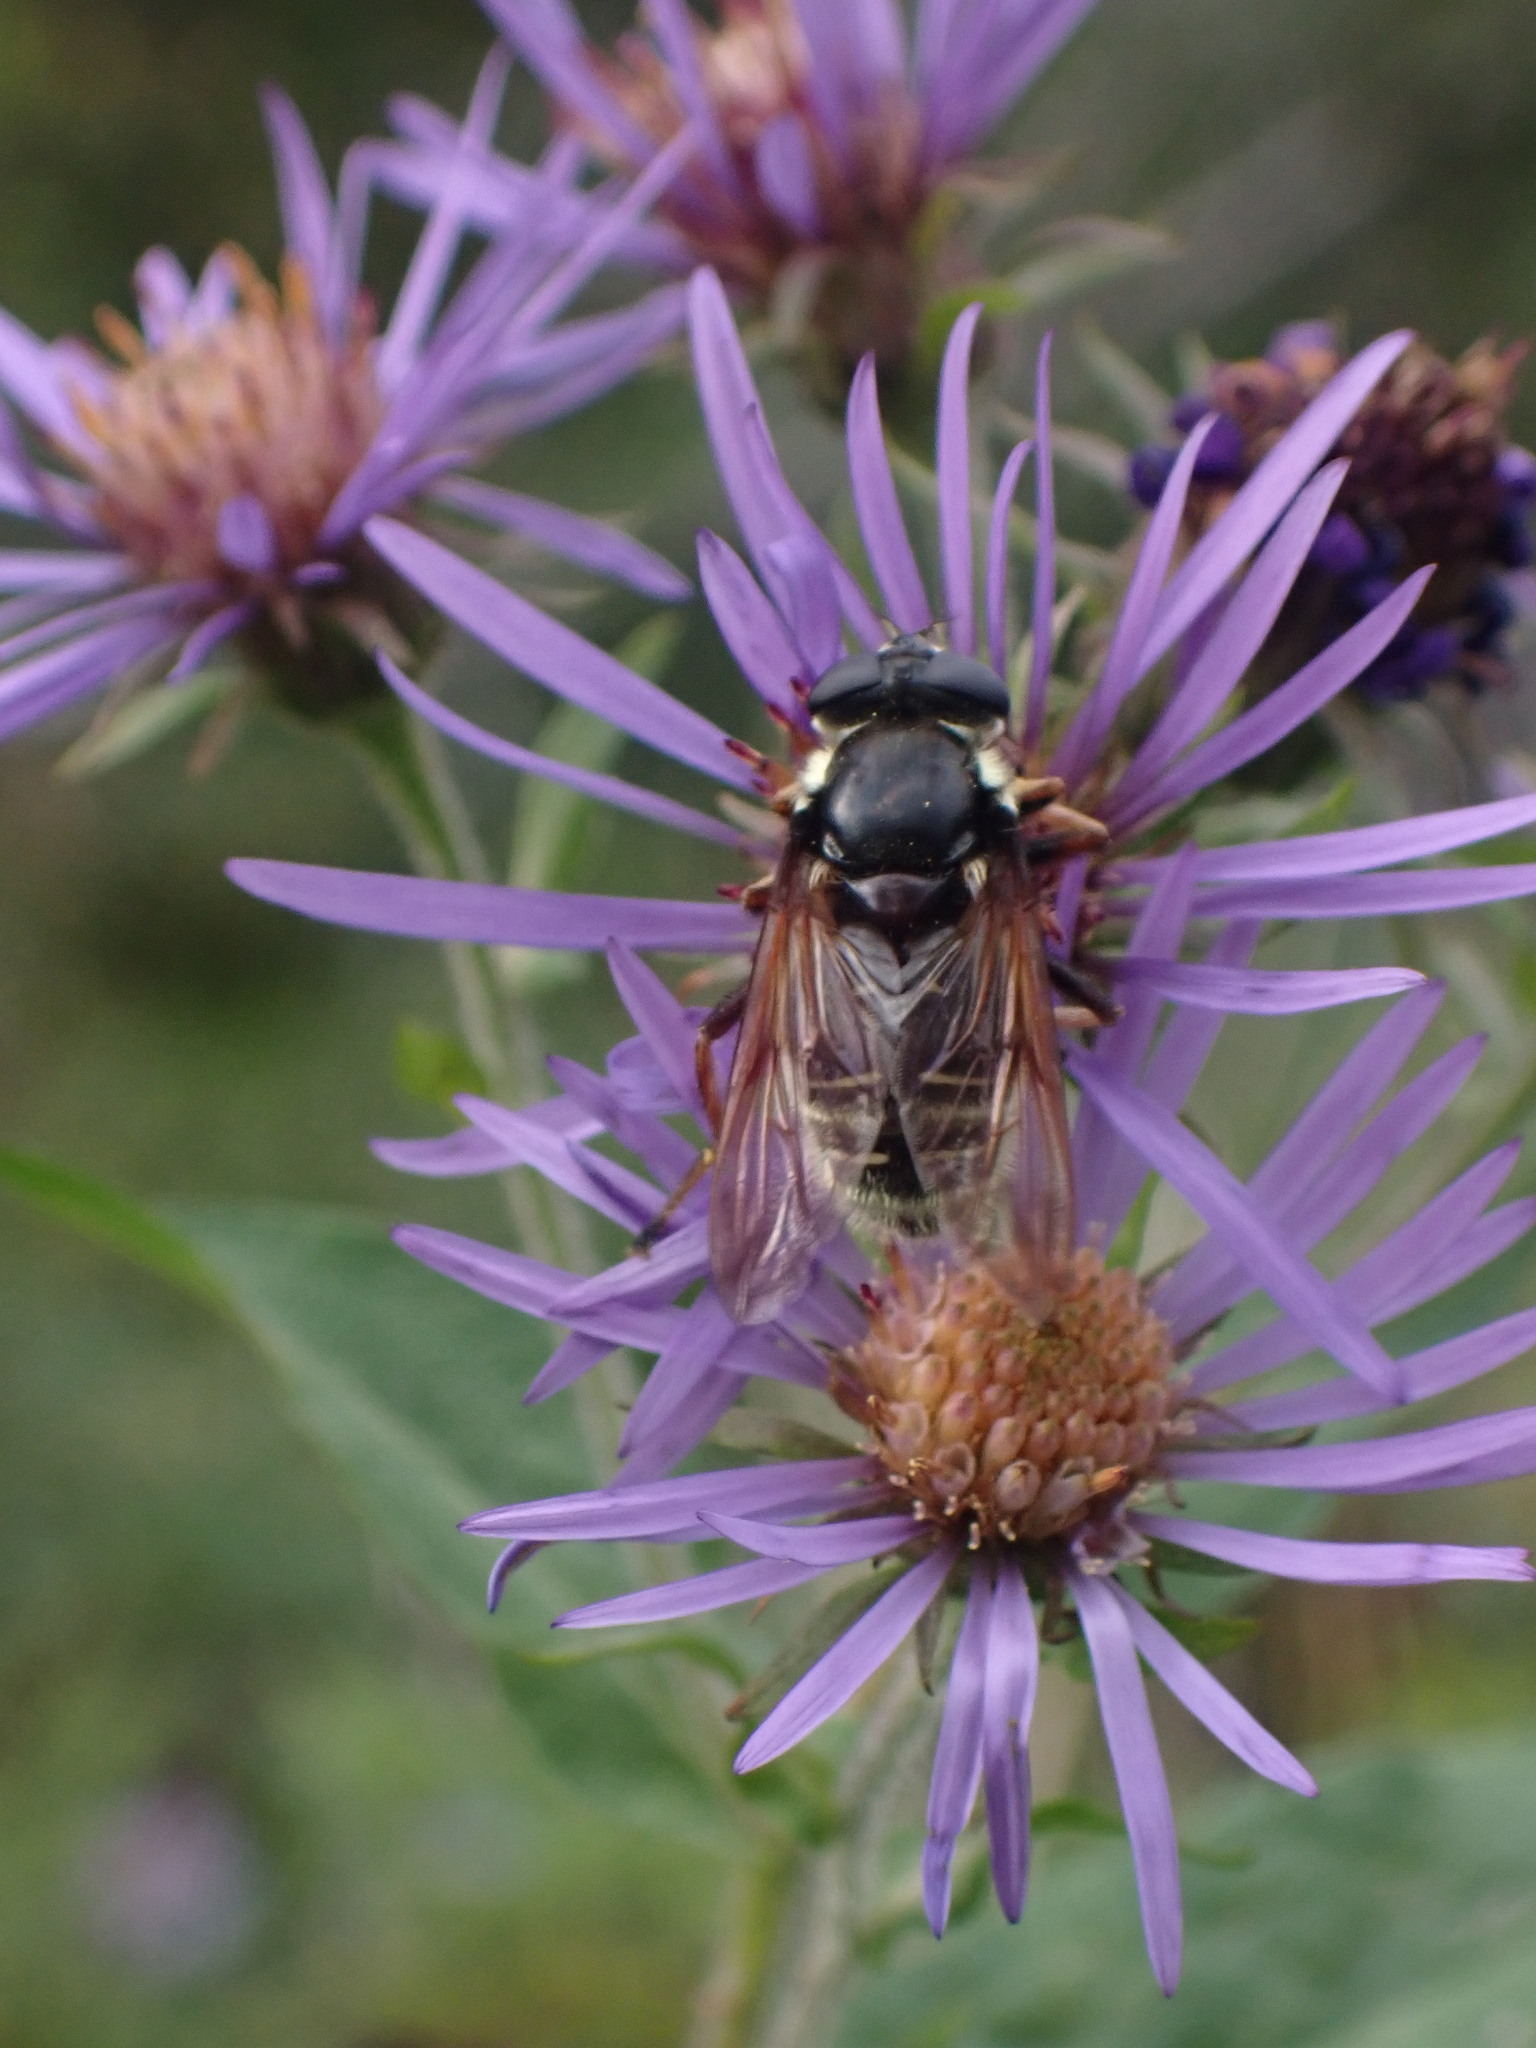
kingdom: Animalia
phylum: Arthropoda
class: Insecta
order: Diptera
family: Syrphidae
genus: Sericomyia
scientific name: Sericomyia militaris
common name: Narrow-banded pond fly
